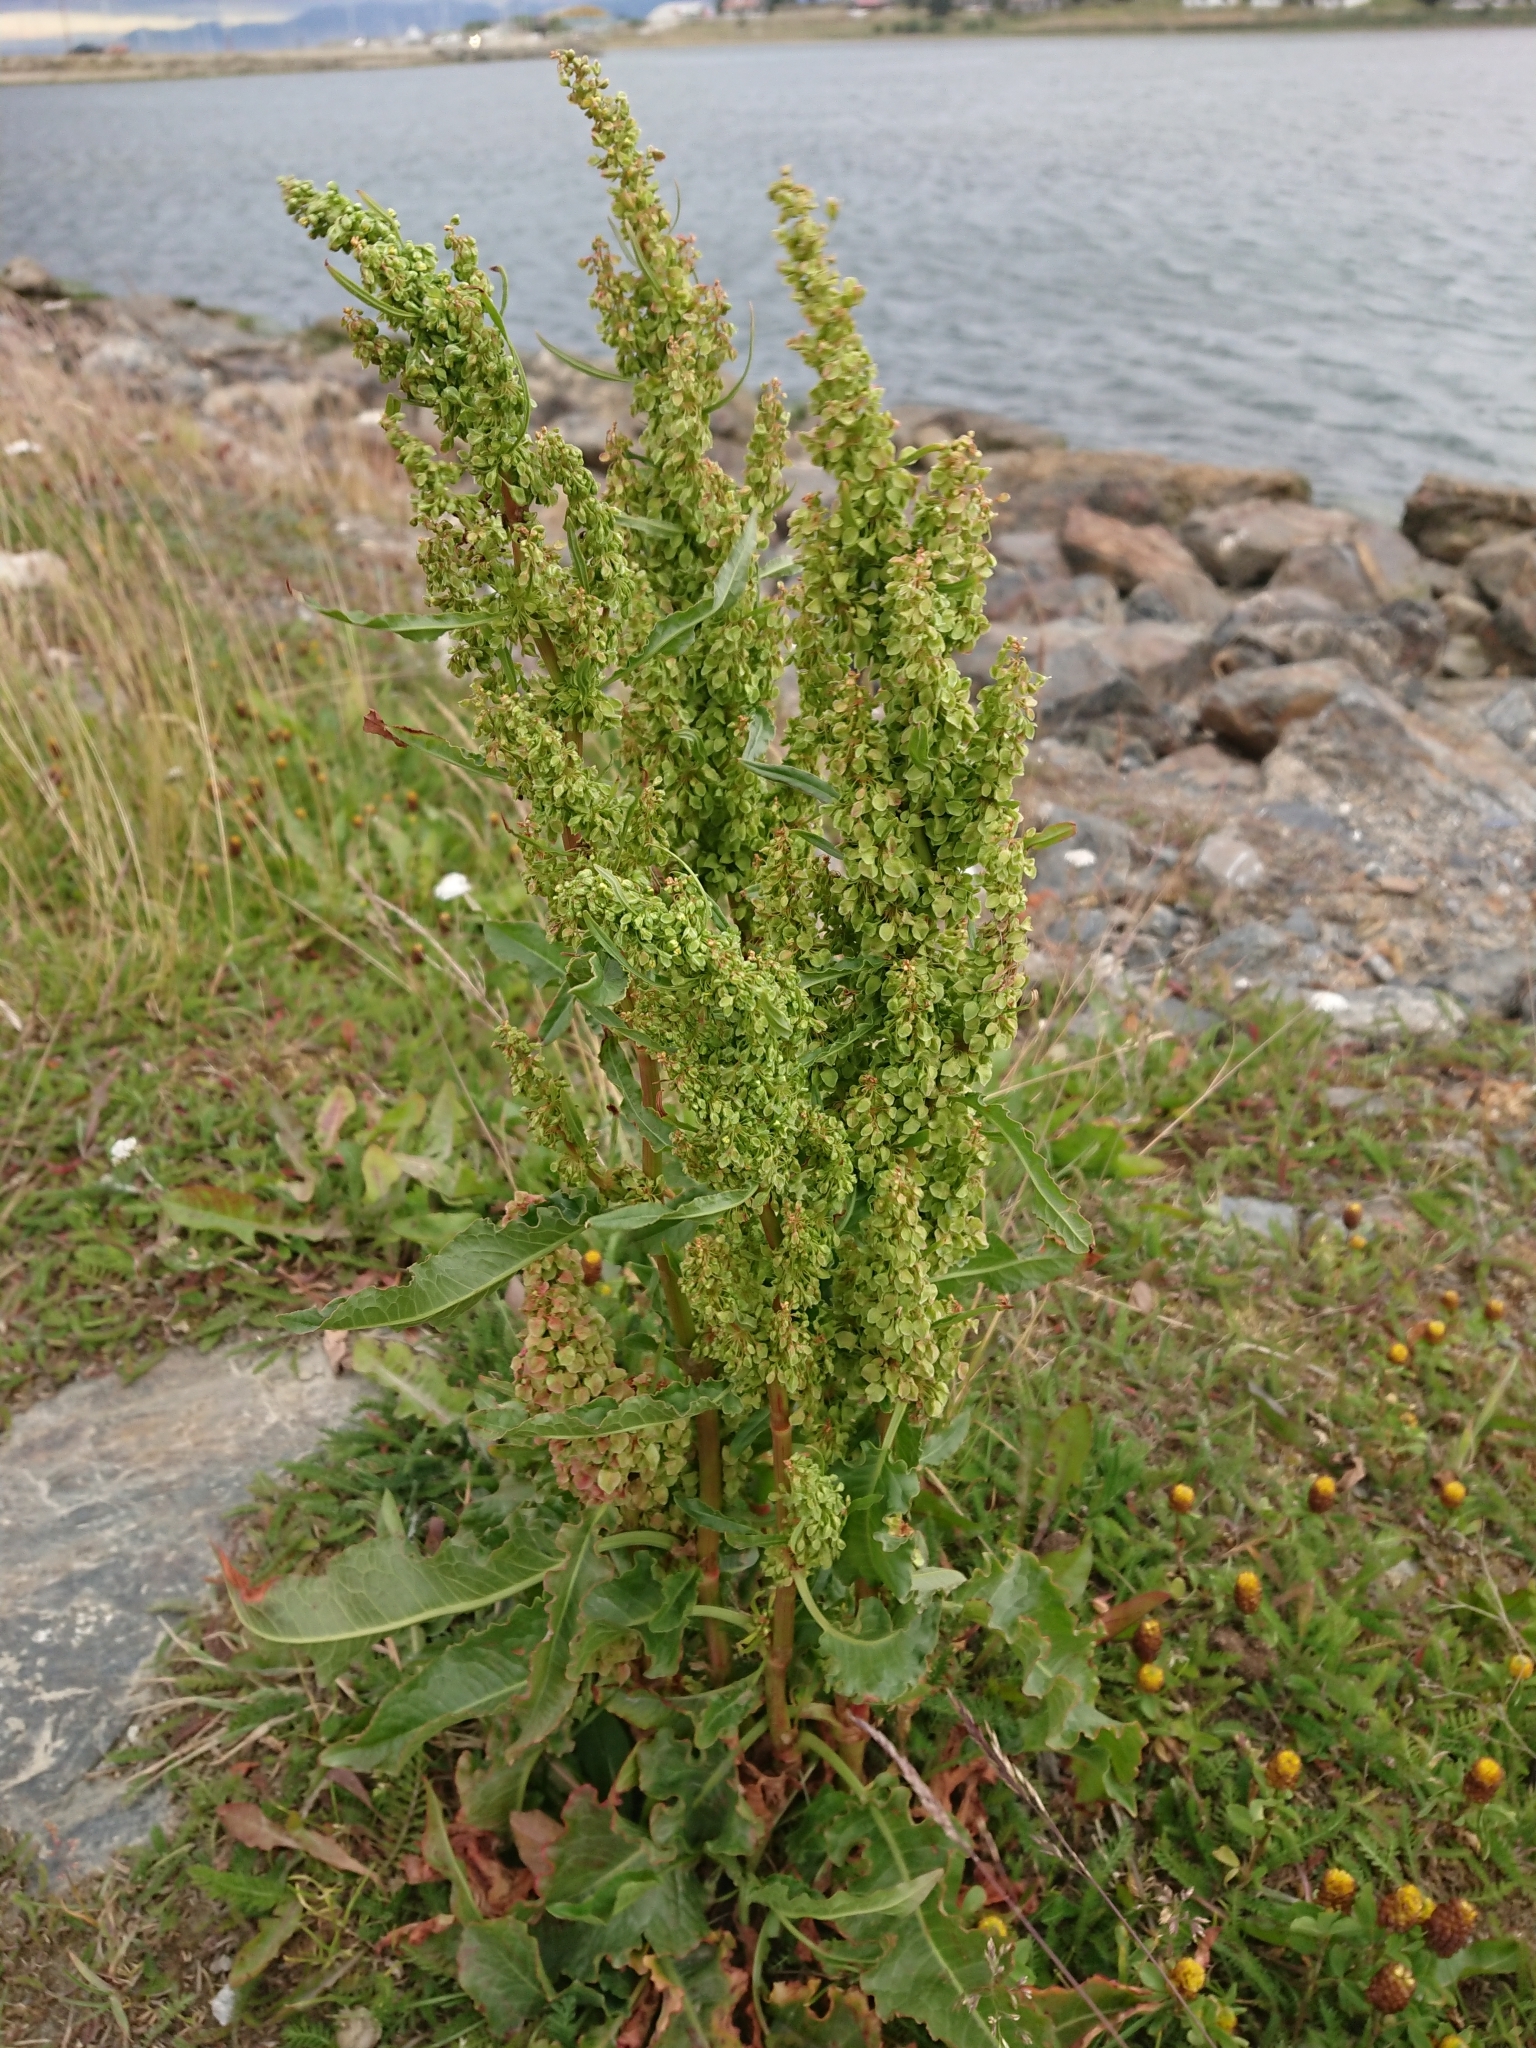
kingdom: Plantae
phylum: Tracheophyta
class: Magnoliopsida
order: Caryophyllales
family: Polygonaceae
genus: Rumex
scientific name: Rumex crispus
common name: Curled dock
